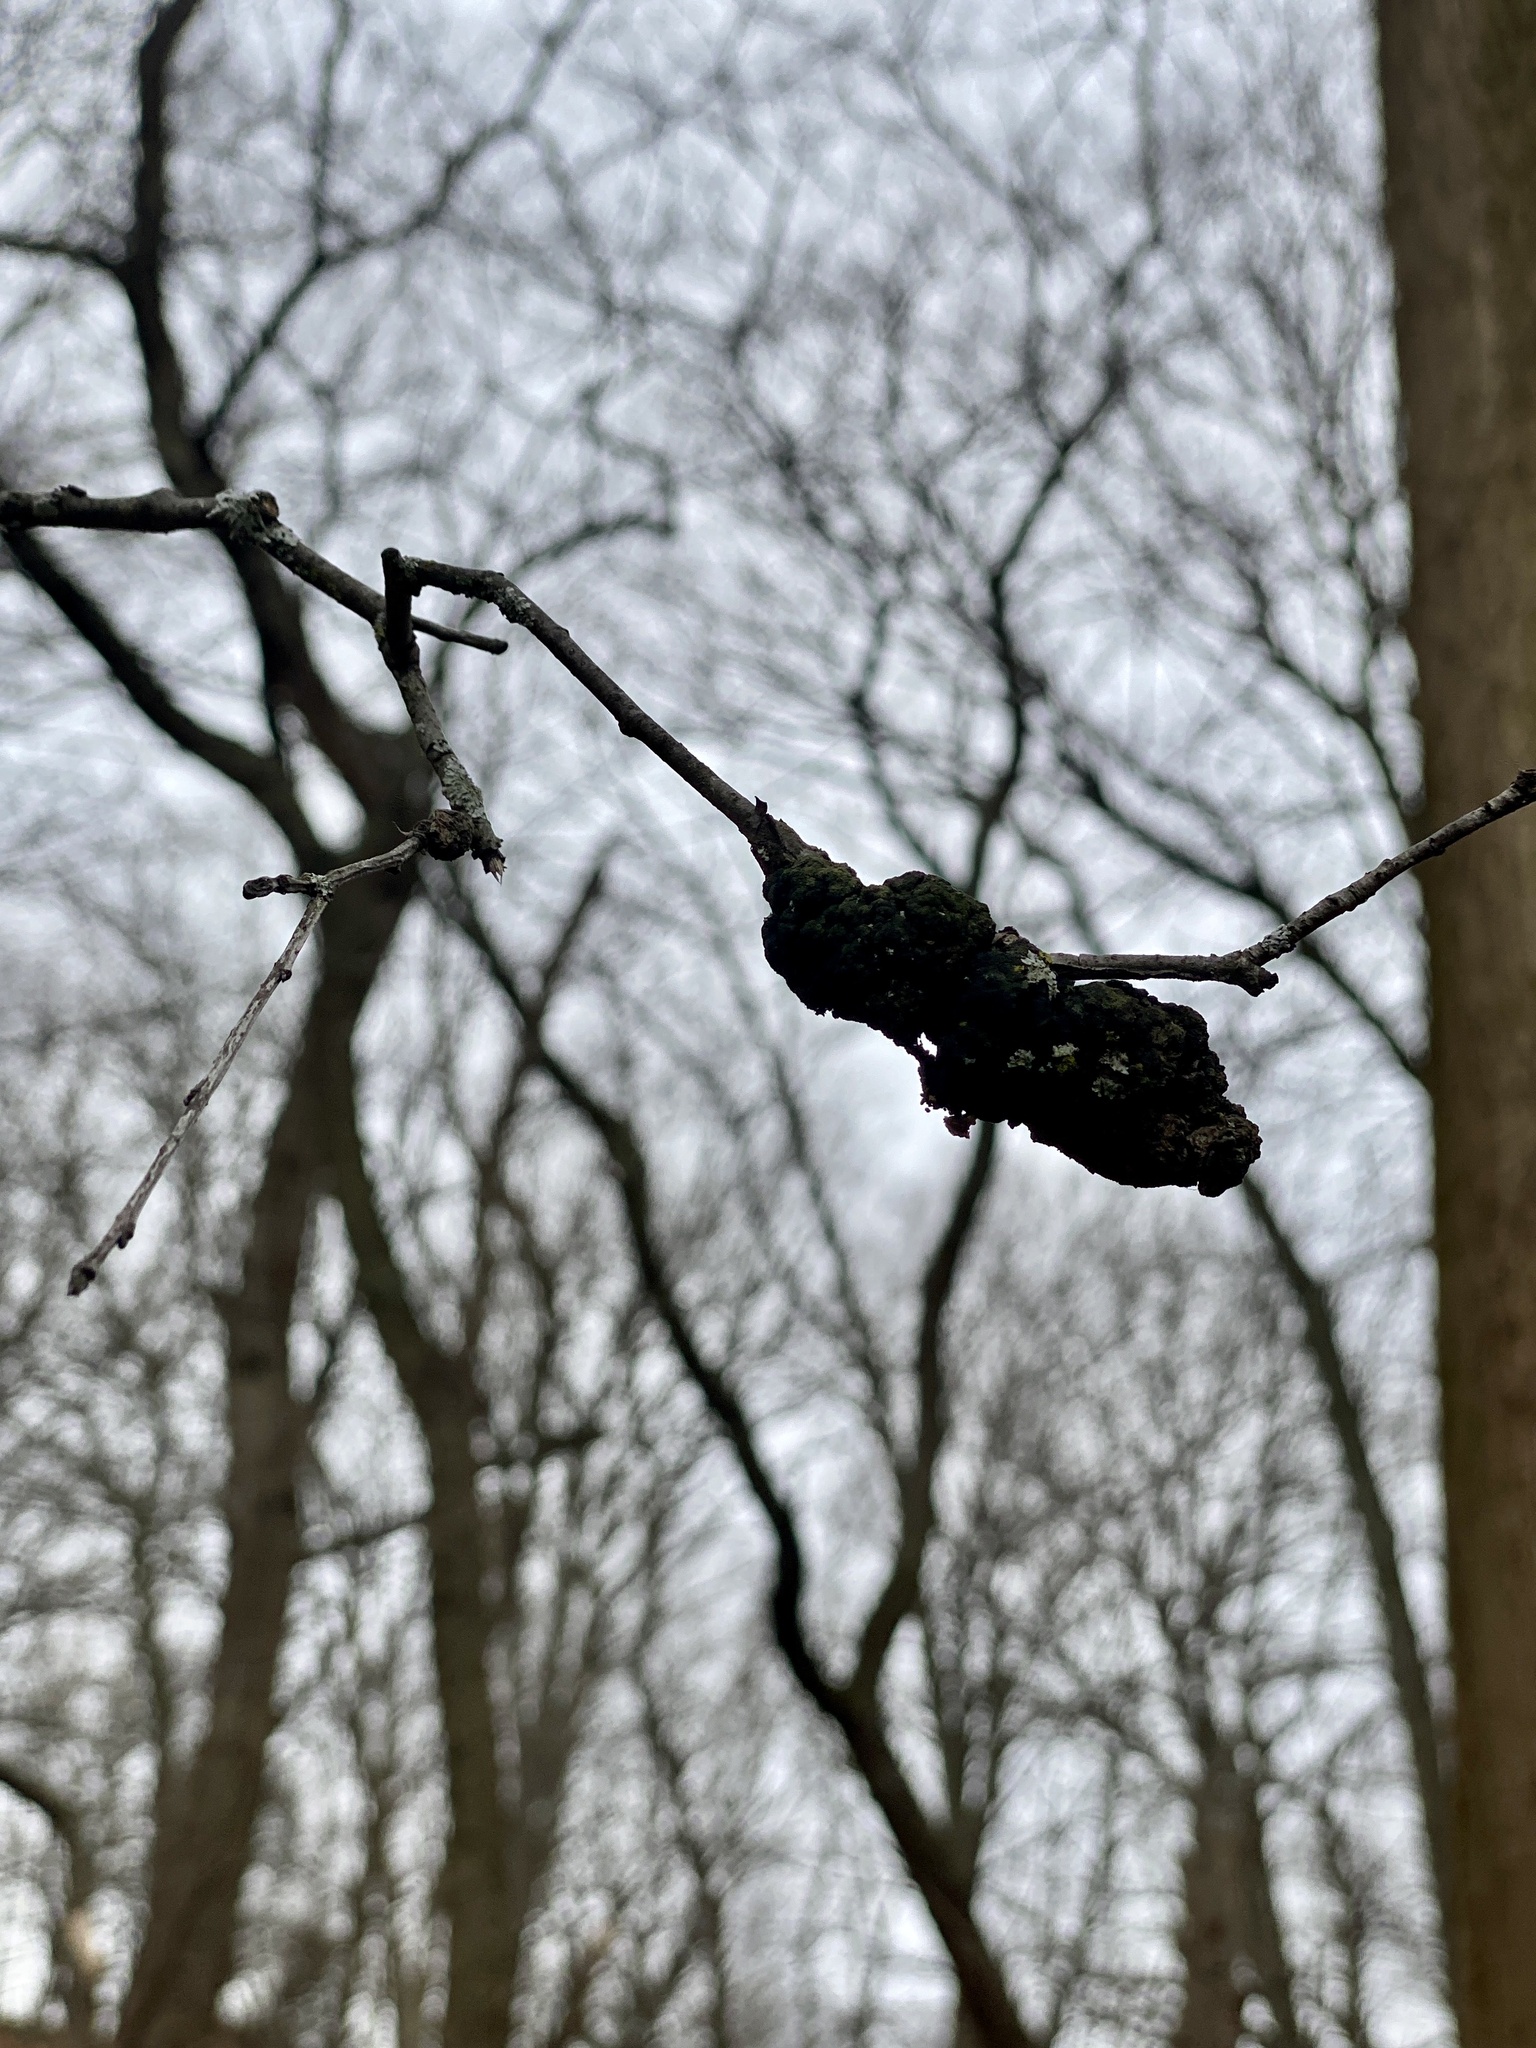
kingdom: Fungi
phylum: Ascomycota
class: Dothideomycetes
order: Venturiales
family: Venturiaceae
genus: Apiosporina
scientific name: Apiosporina morbosa
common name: Black knot
